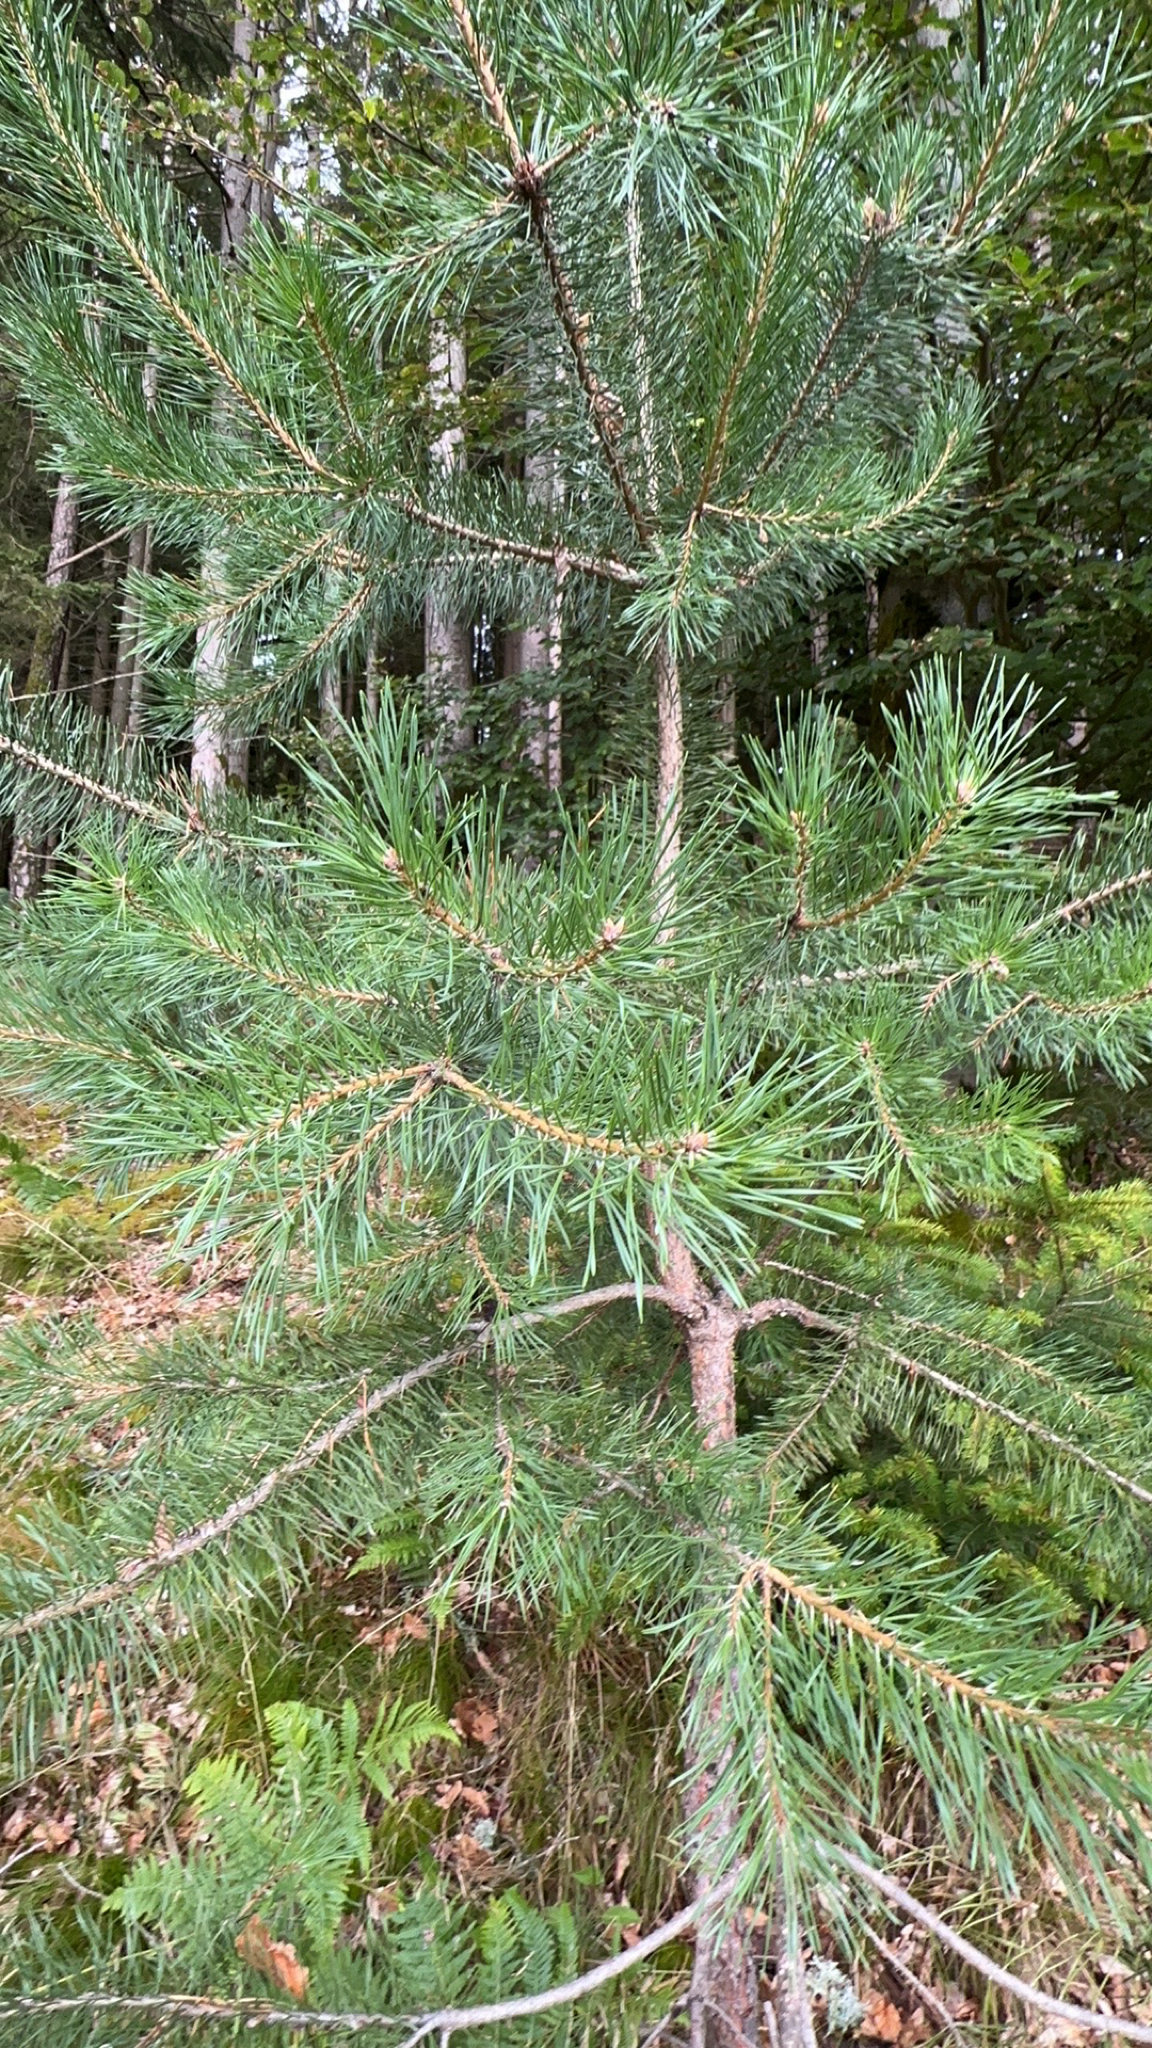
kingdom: Plantae
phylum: Tracheophyta
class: Pinopsida
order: Pinales
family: Pinaceae
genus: Pinus
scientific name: Pinus sylvestris
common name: Scots pine
